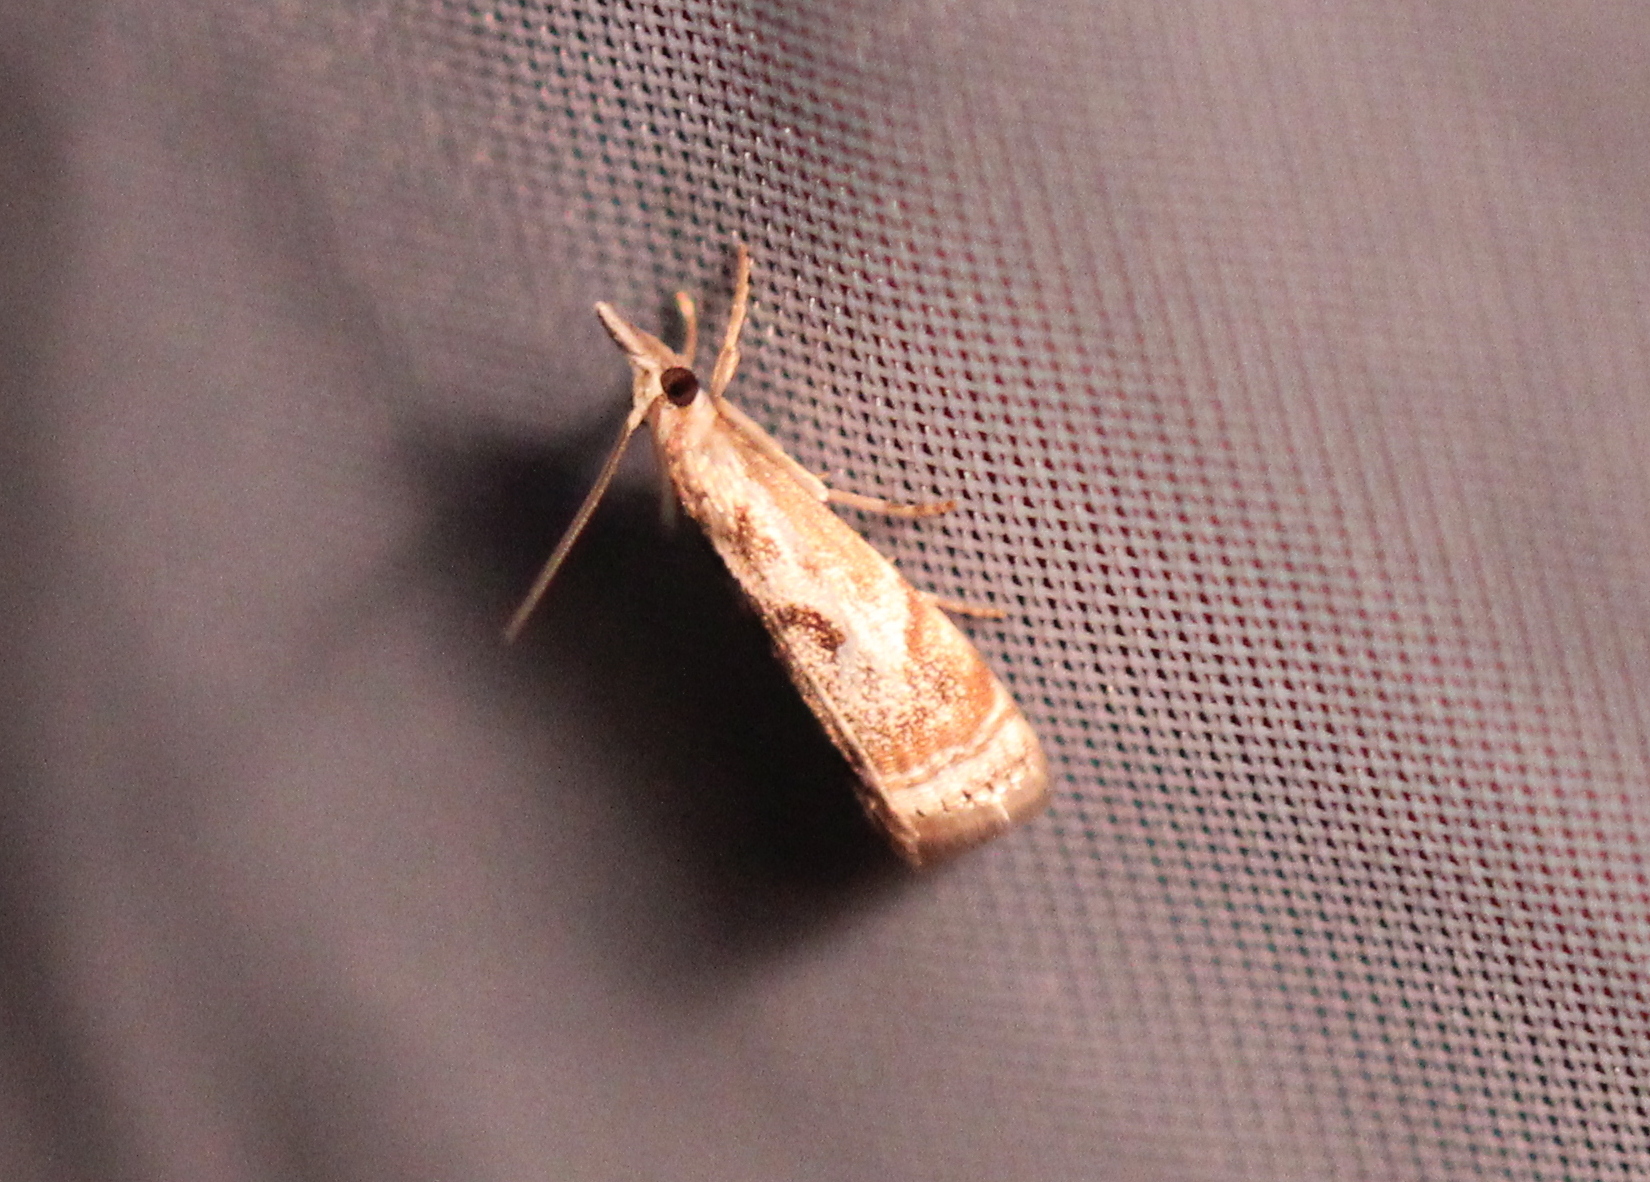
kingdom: Animalia
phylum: Arthropoda
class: Insecta
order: Lepidoptera
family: Crambidae
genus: Microcrambus
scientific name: Microcrambus elegans
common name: Elegant grass-veneer
